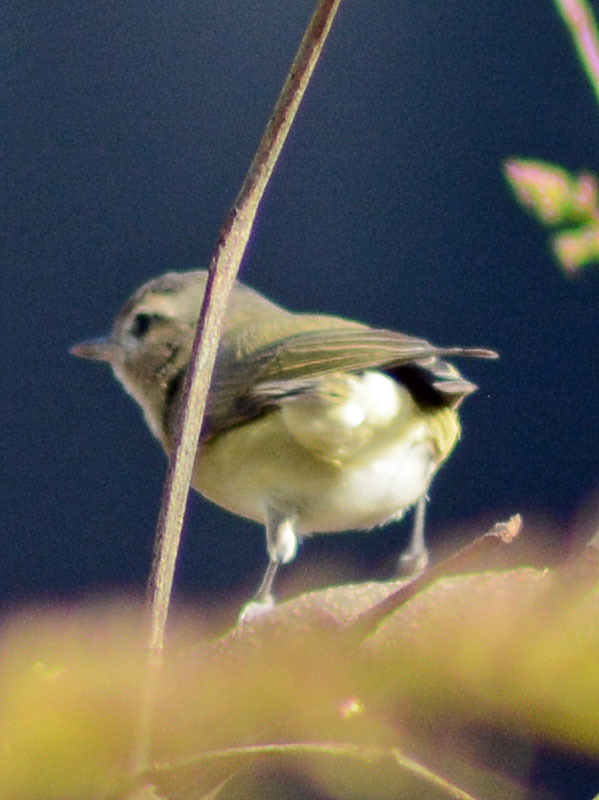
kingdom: Animalia
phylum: Chordata
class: Aves
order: Passeriformes
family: Vireonidae
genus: Vireo
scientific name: Vireo gilvus
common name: Warbling vireo
